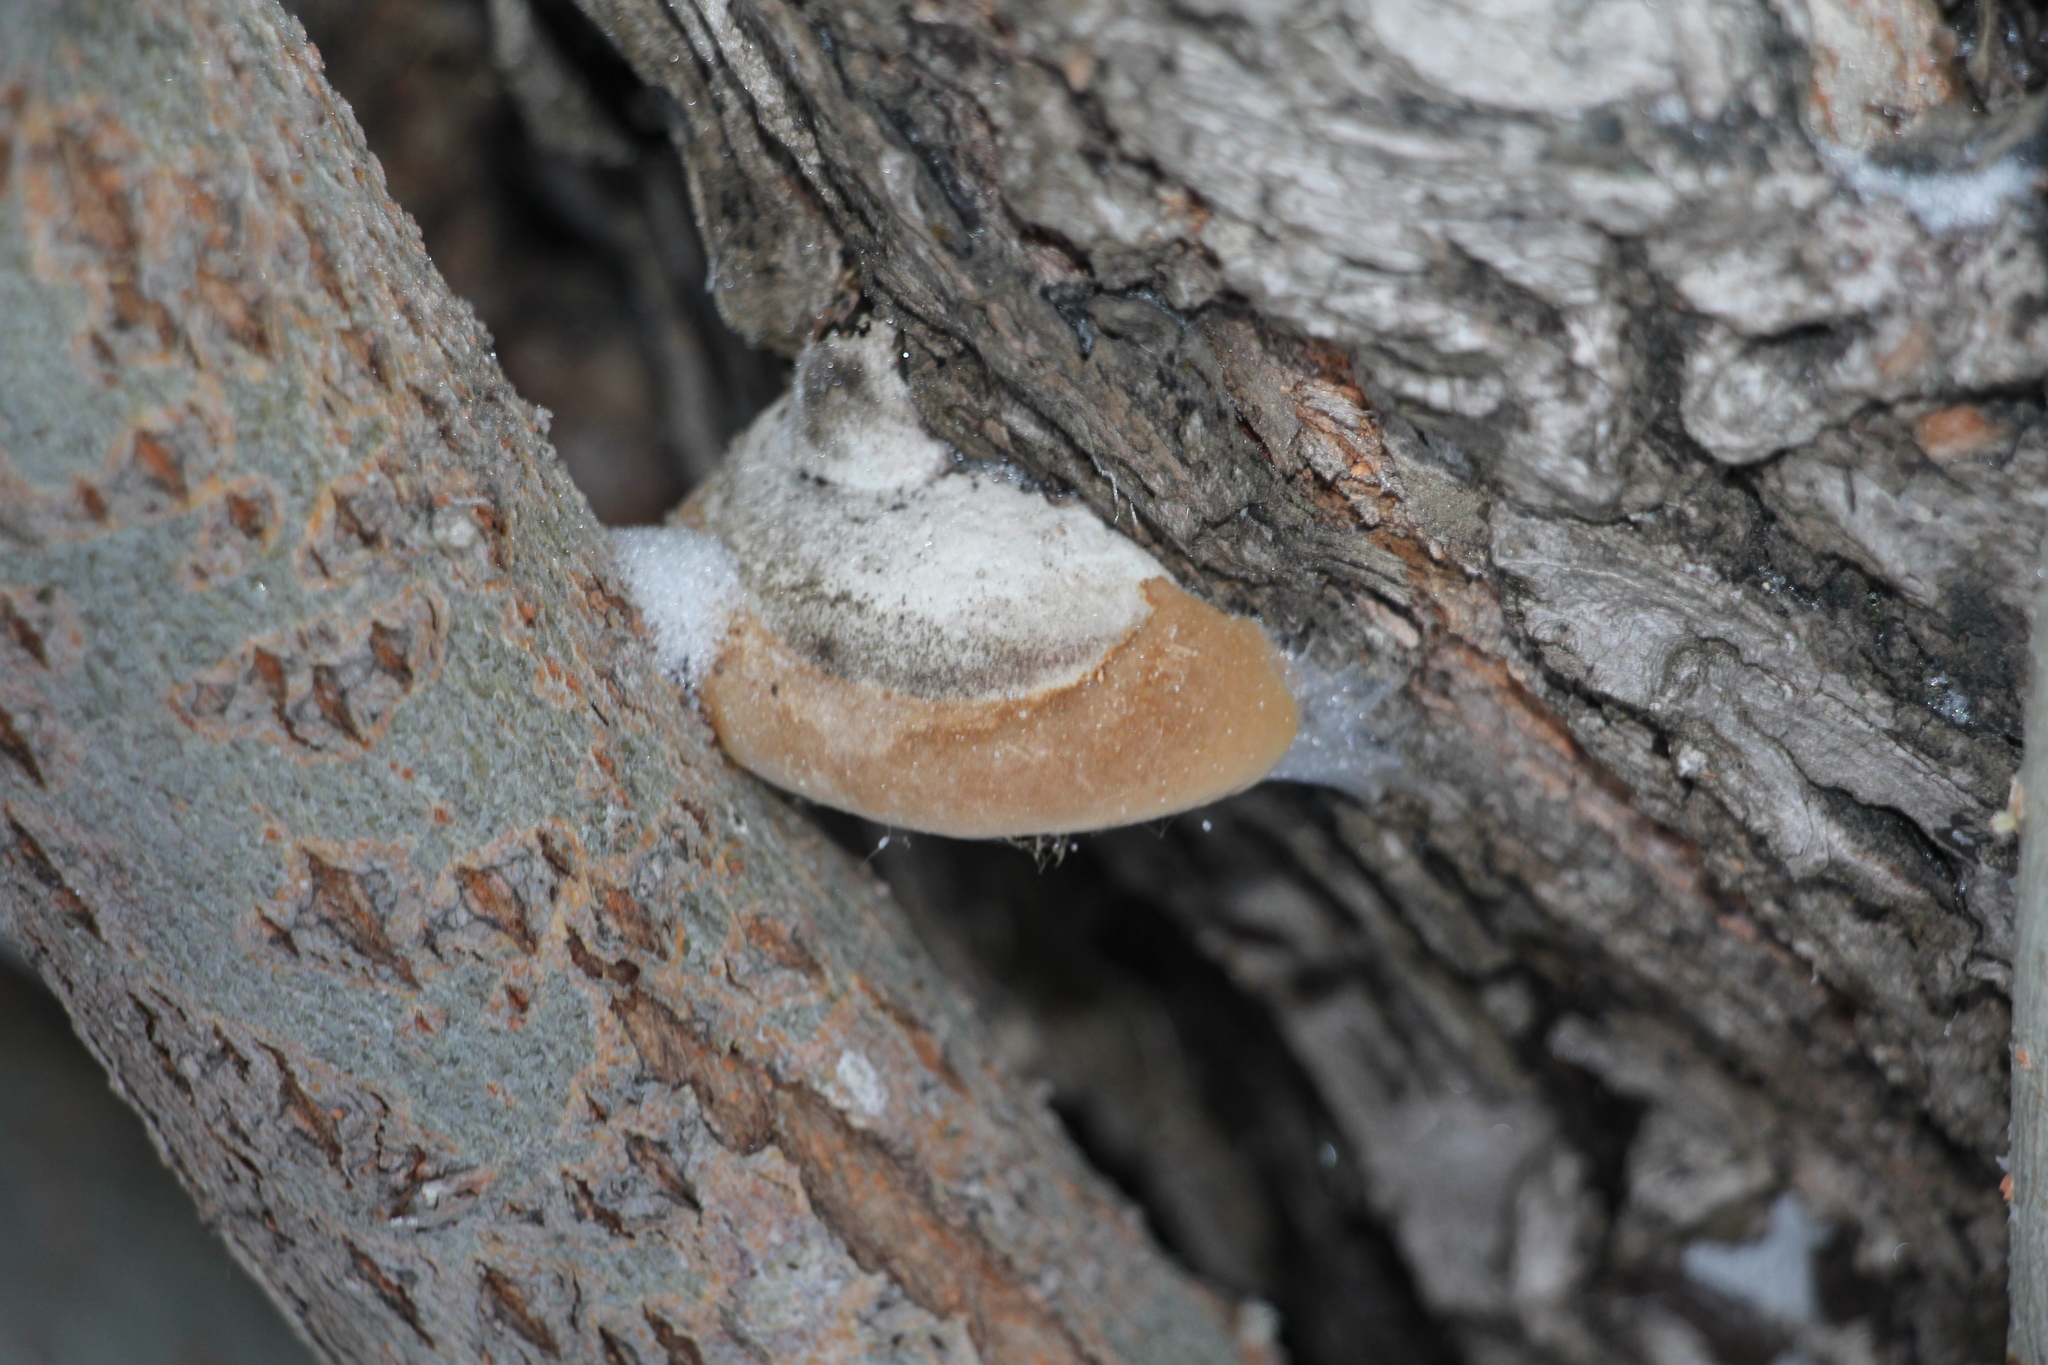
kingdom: Fungi
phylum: Basidiomycota
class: Agaricomycetes
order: Hymenochaetales
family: Hymenochaetaceae
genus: Phellinus
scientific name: Phellinus igniarius
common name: Willow bracket
